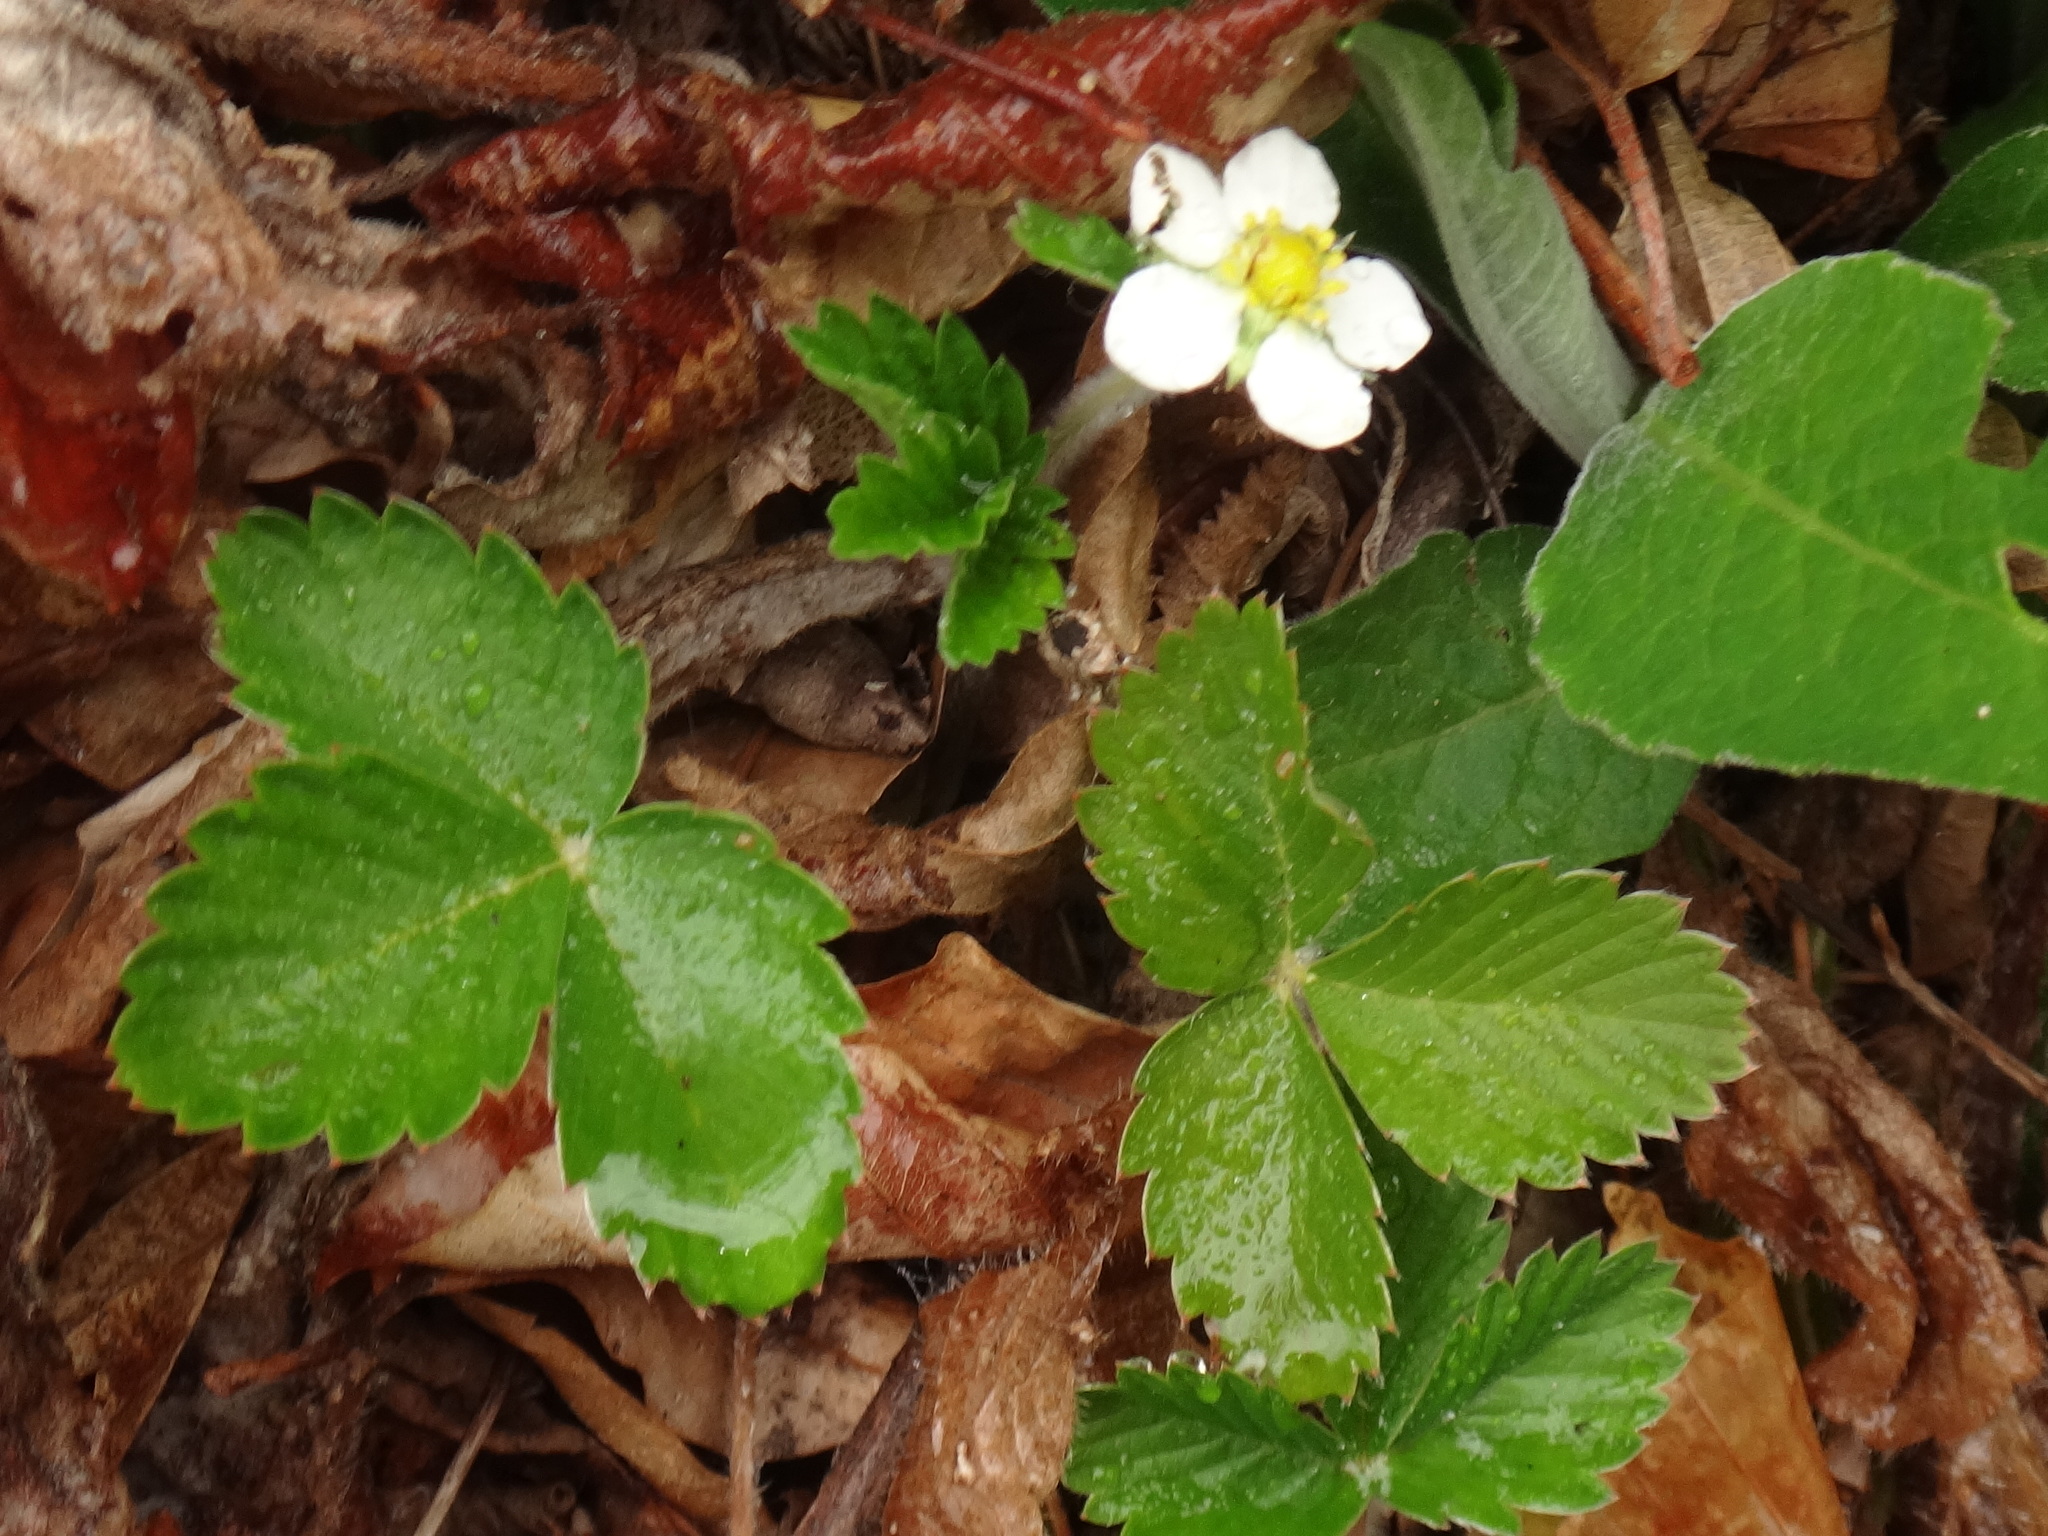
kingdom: Plantae
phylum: Tracheophyta
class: Magnoliopsida
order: Rosales
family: Rosaceae
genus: Fragaria
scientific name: Fragaria vesca
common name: Wild strawberry
